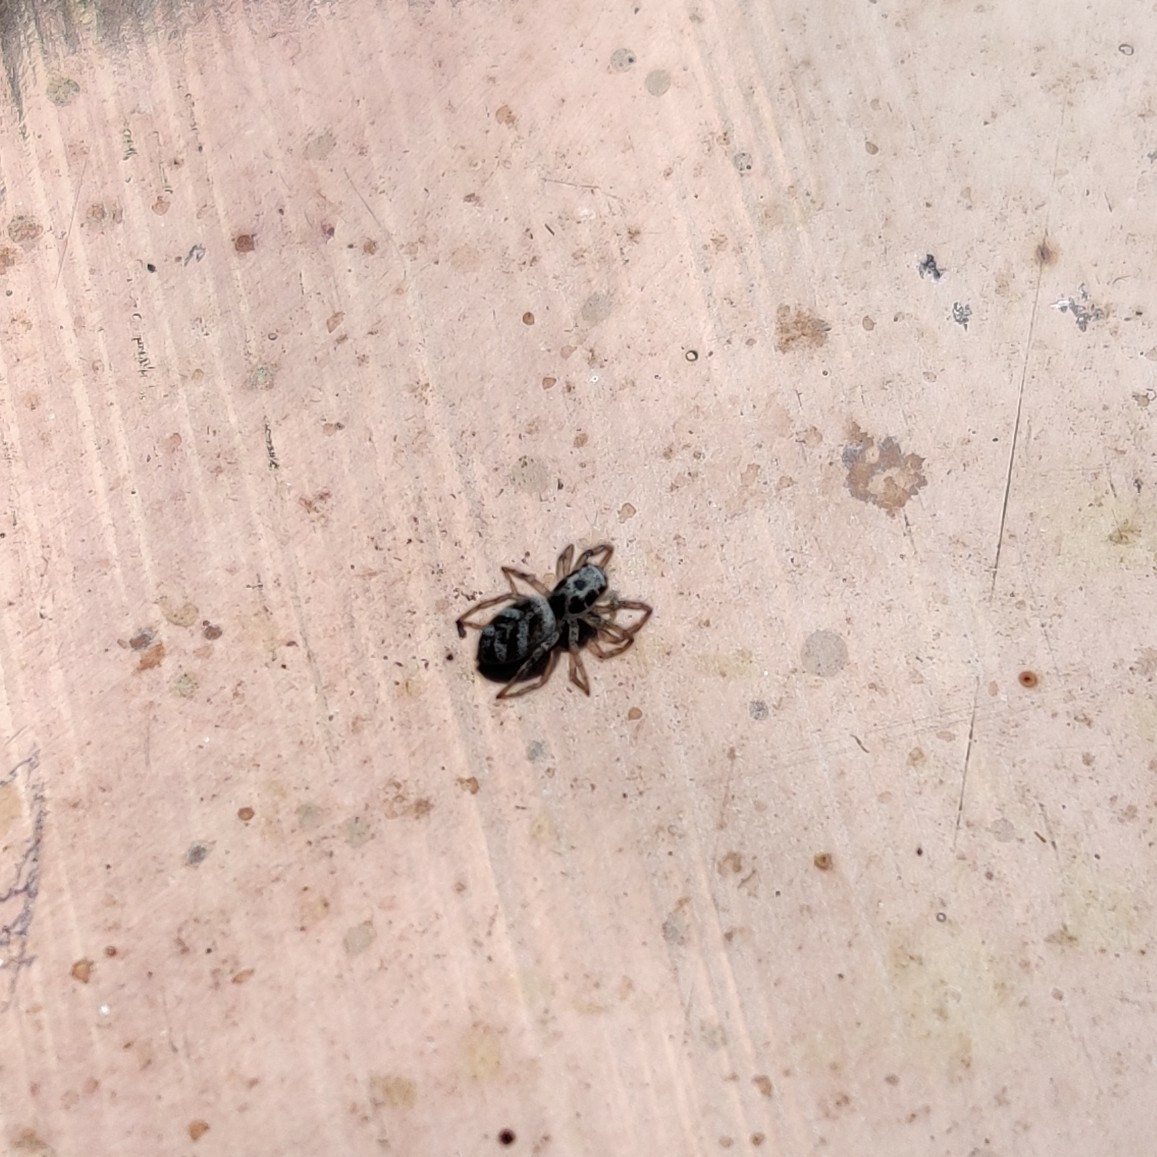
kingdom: Animalia
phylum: Arthropoda
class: Arachnida
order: Araneae
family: Salticidae
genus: Salticus
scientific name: Salticus scenicus
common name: Zebra jumper
